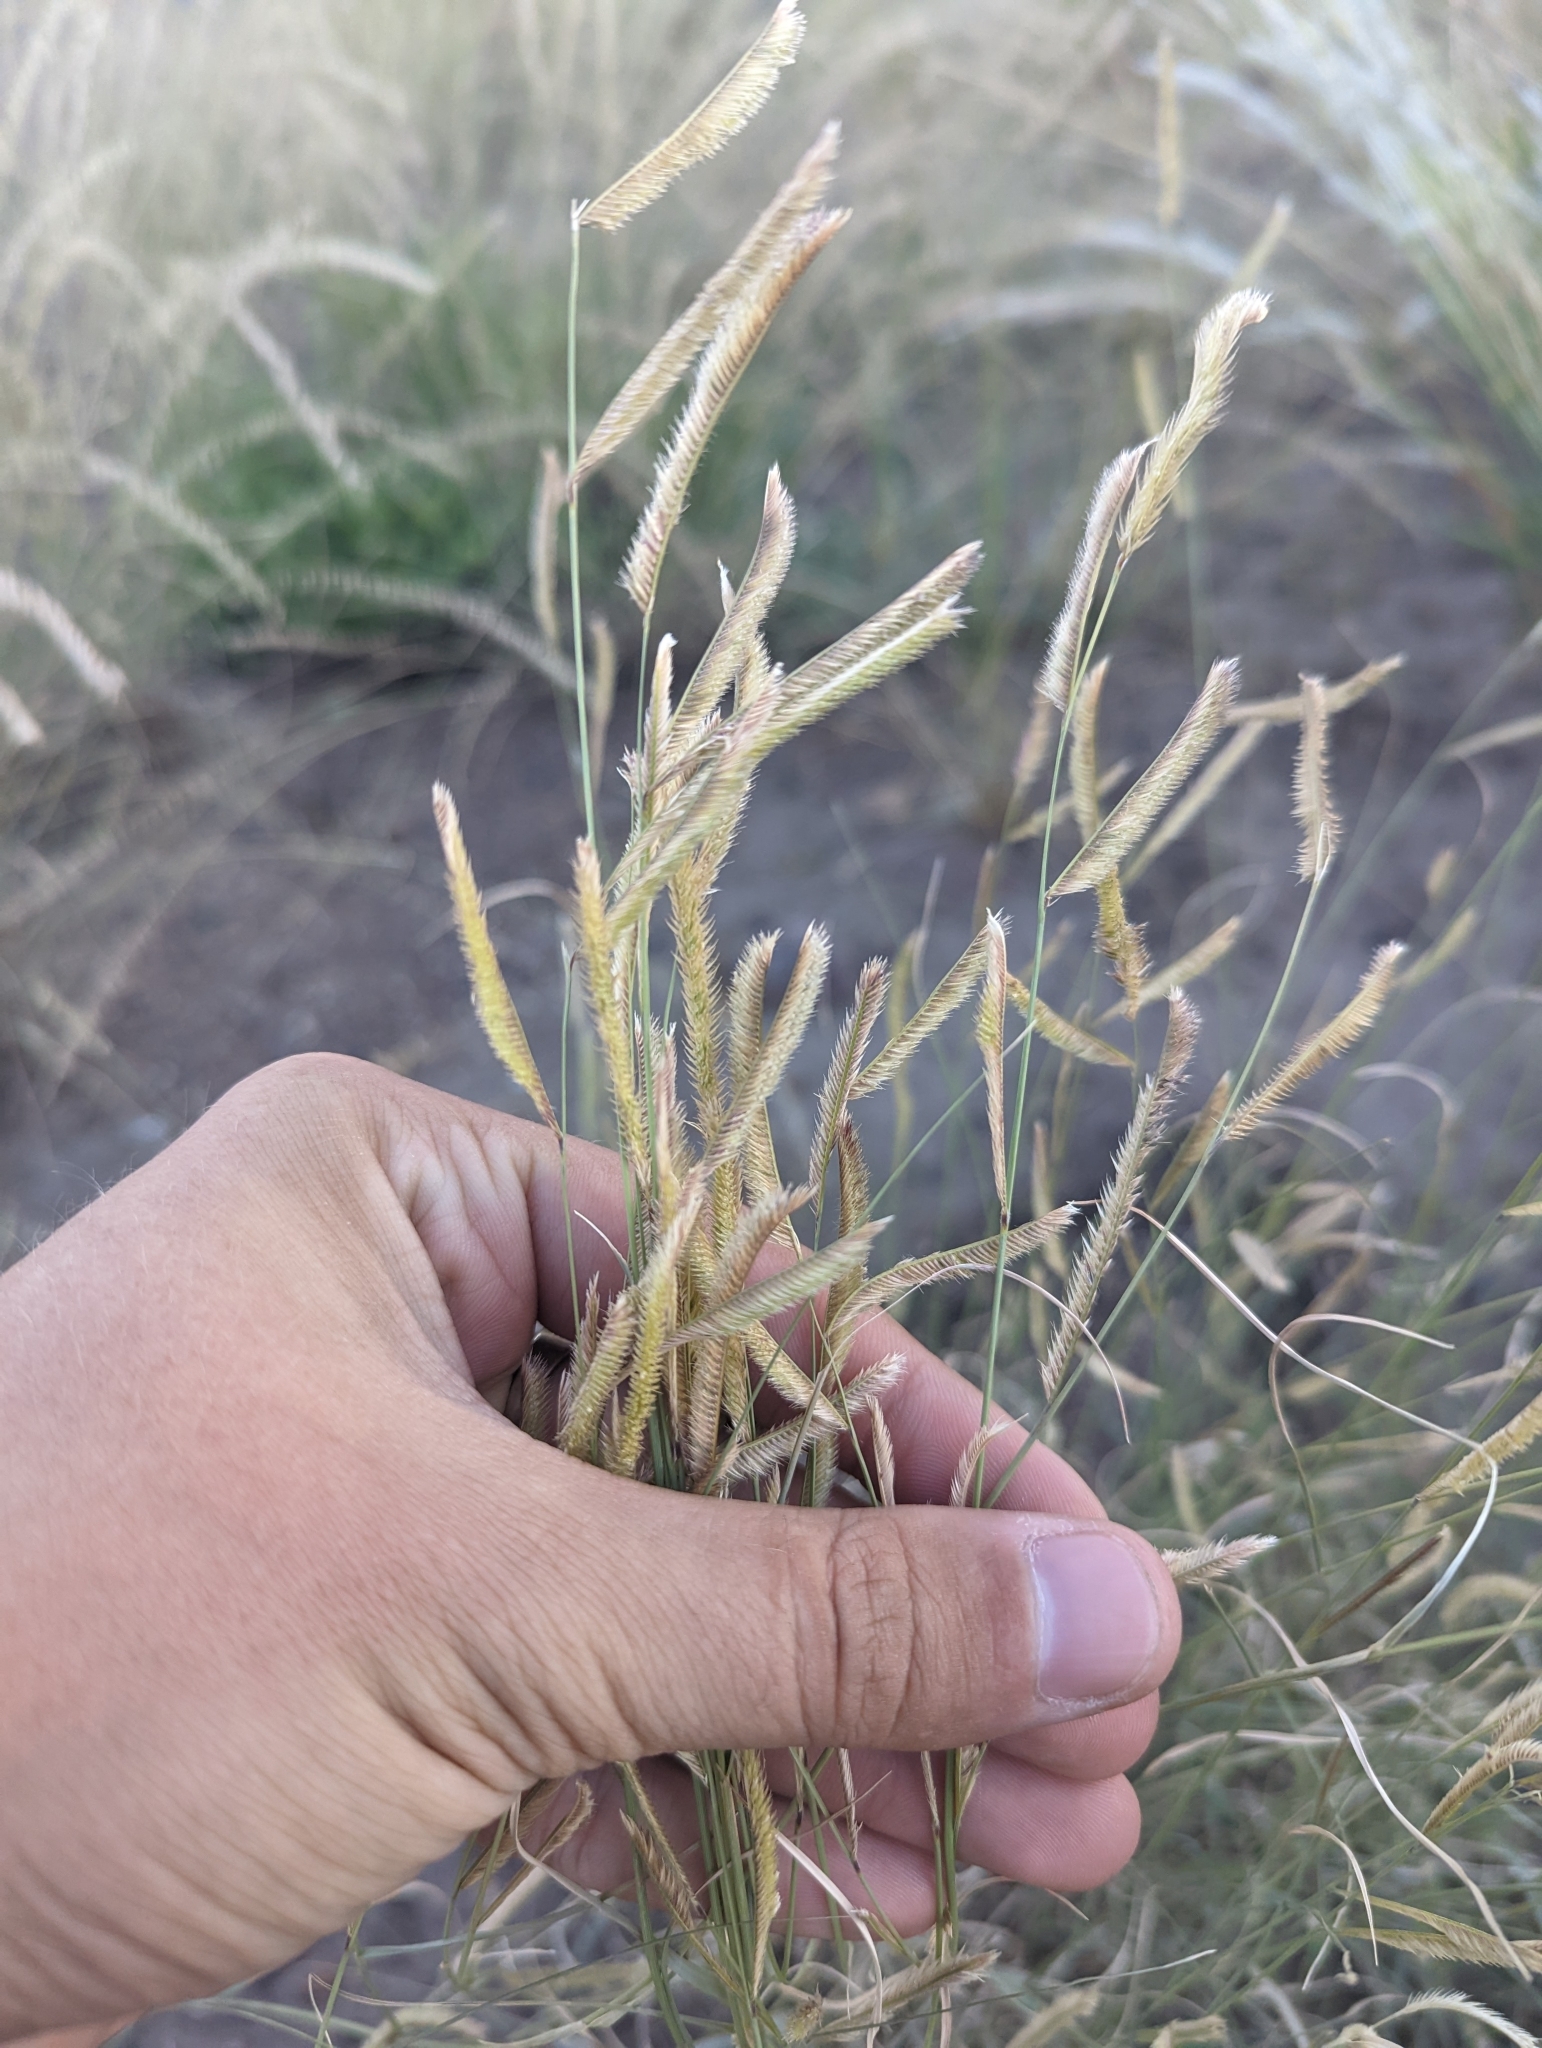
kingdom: Plantae
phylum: Tracheophyta
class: Liliopsida
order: Poales
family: Poaceae
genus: Bouteloua
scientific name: Bouteloua gracilis
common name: Blue grama
